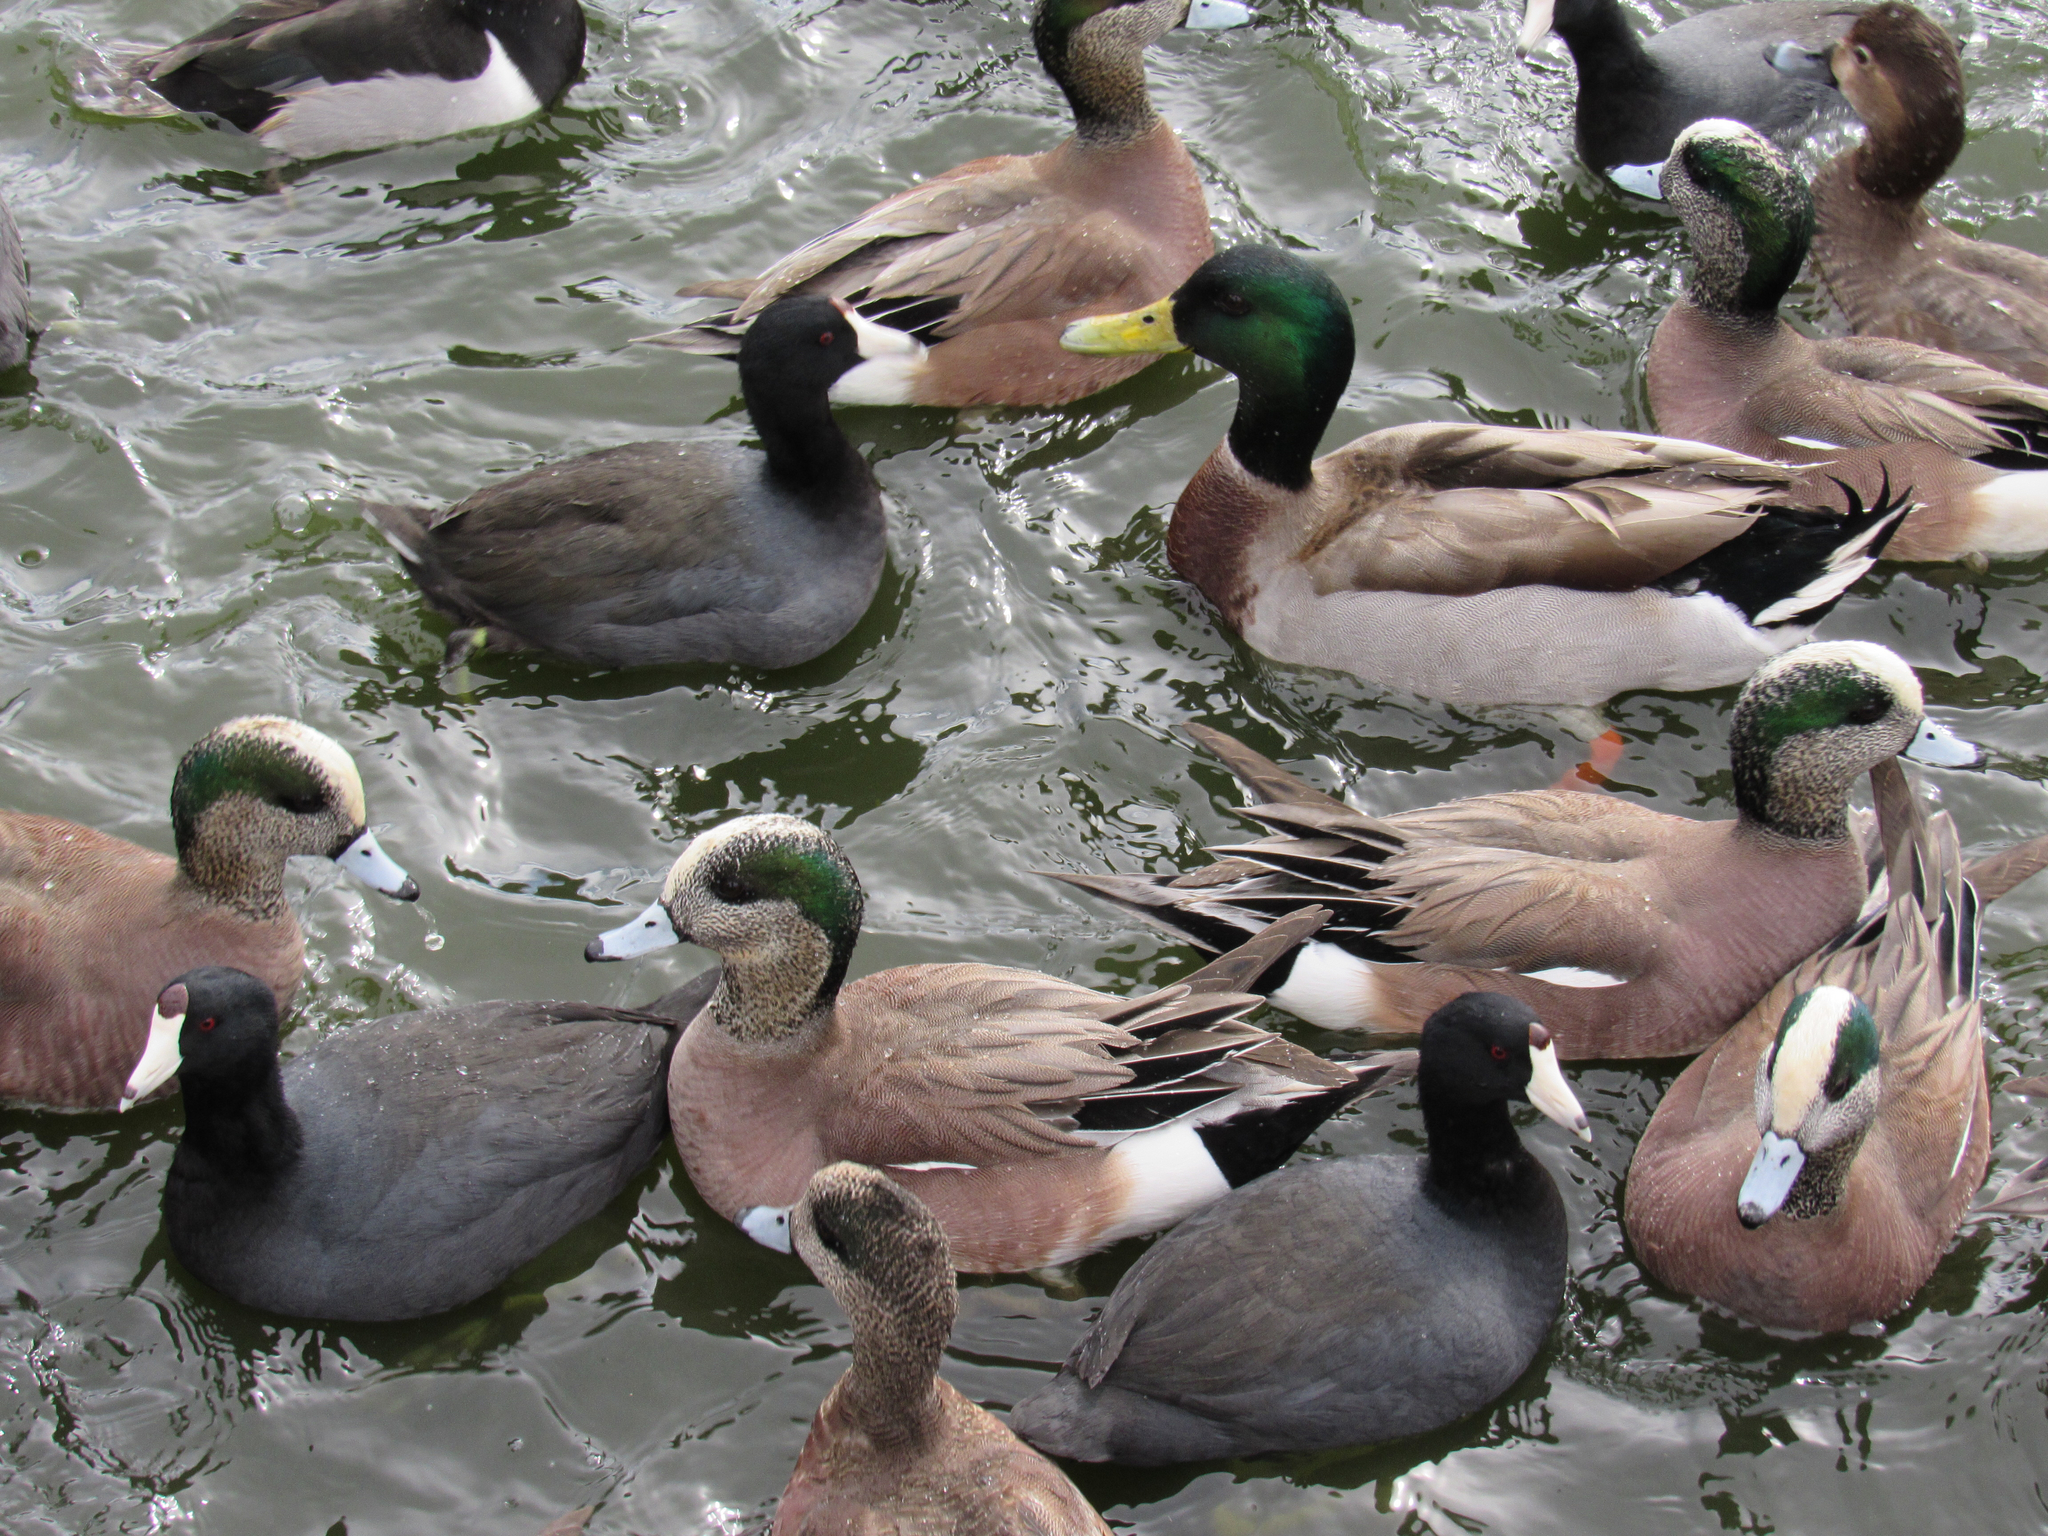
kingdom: Animalia
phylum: Chordata
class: Aves
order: Gruiformes
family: Rallidae
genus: Fulica
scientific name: Fulica americana
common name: American coot
